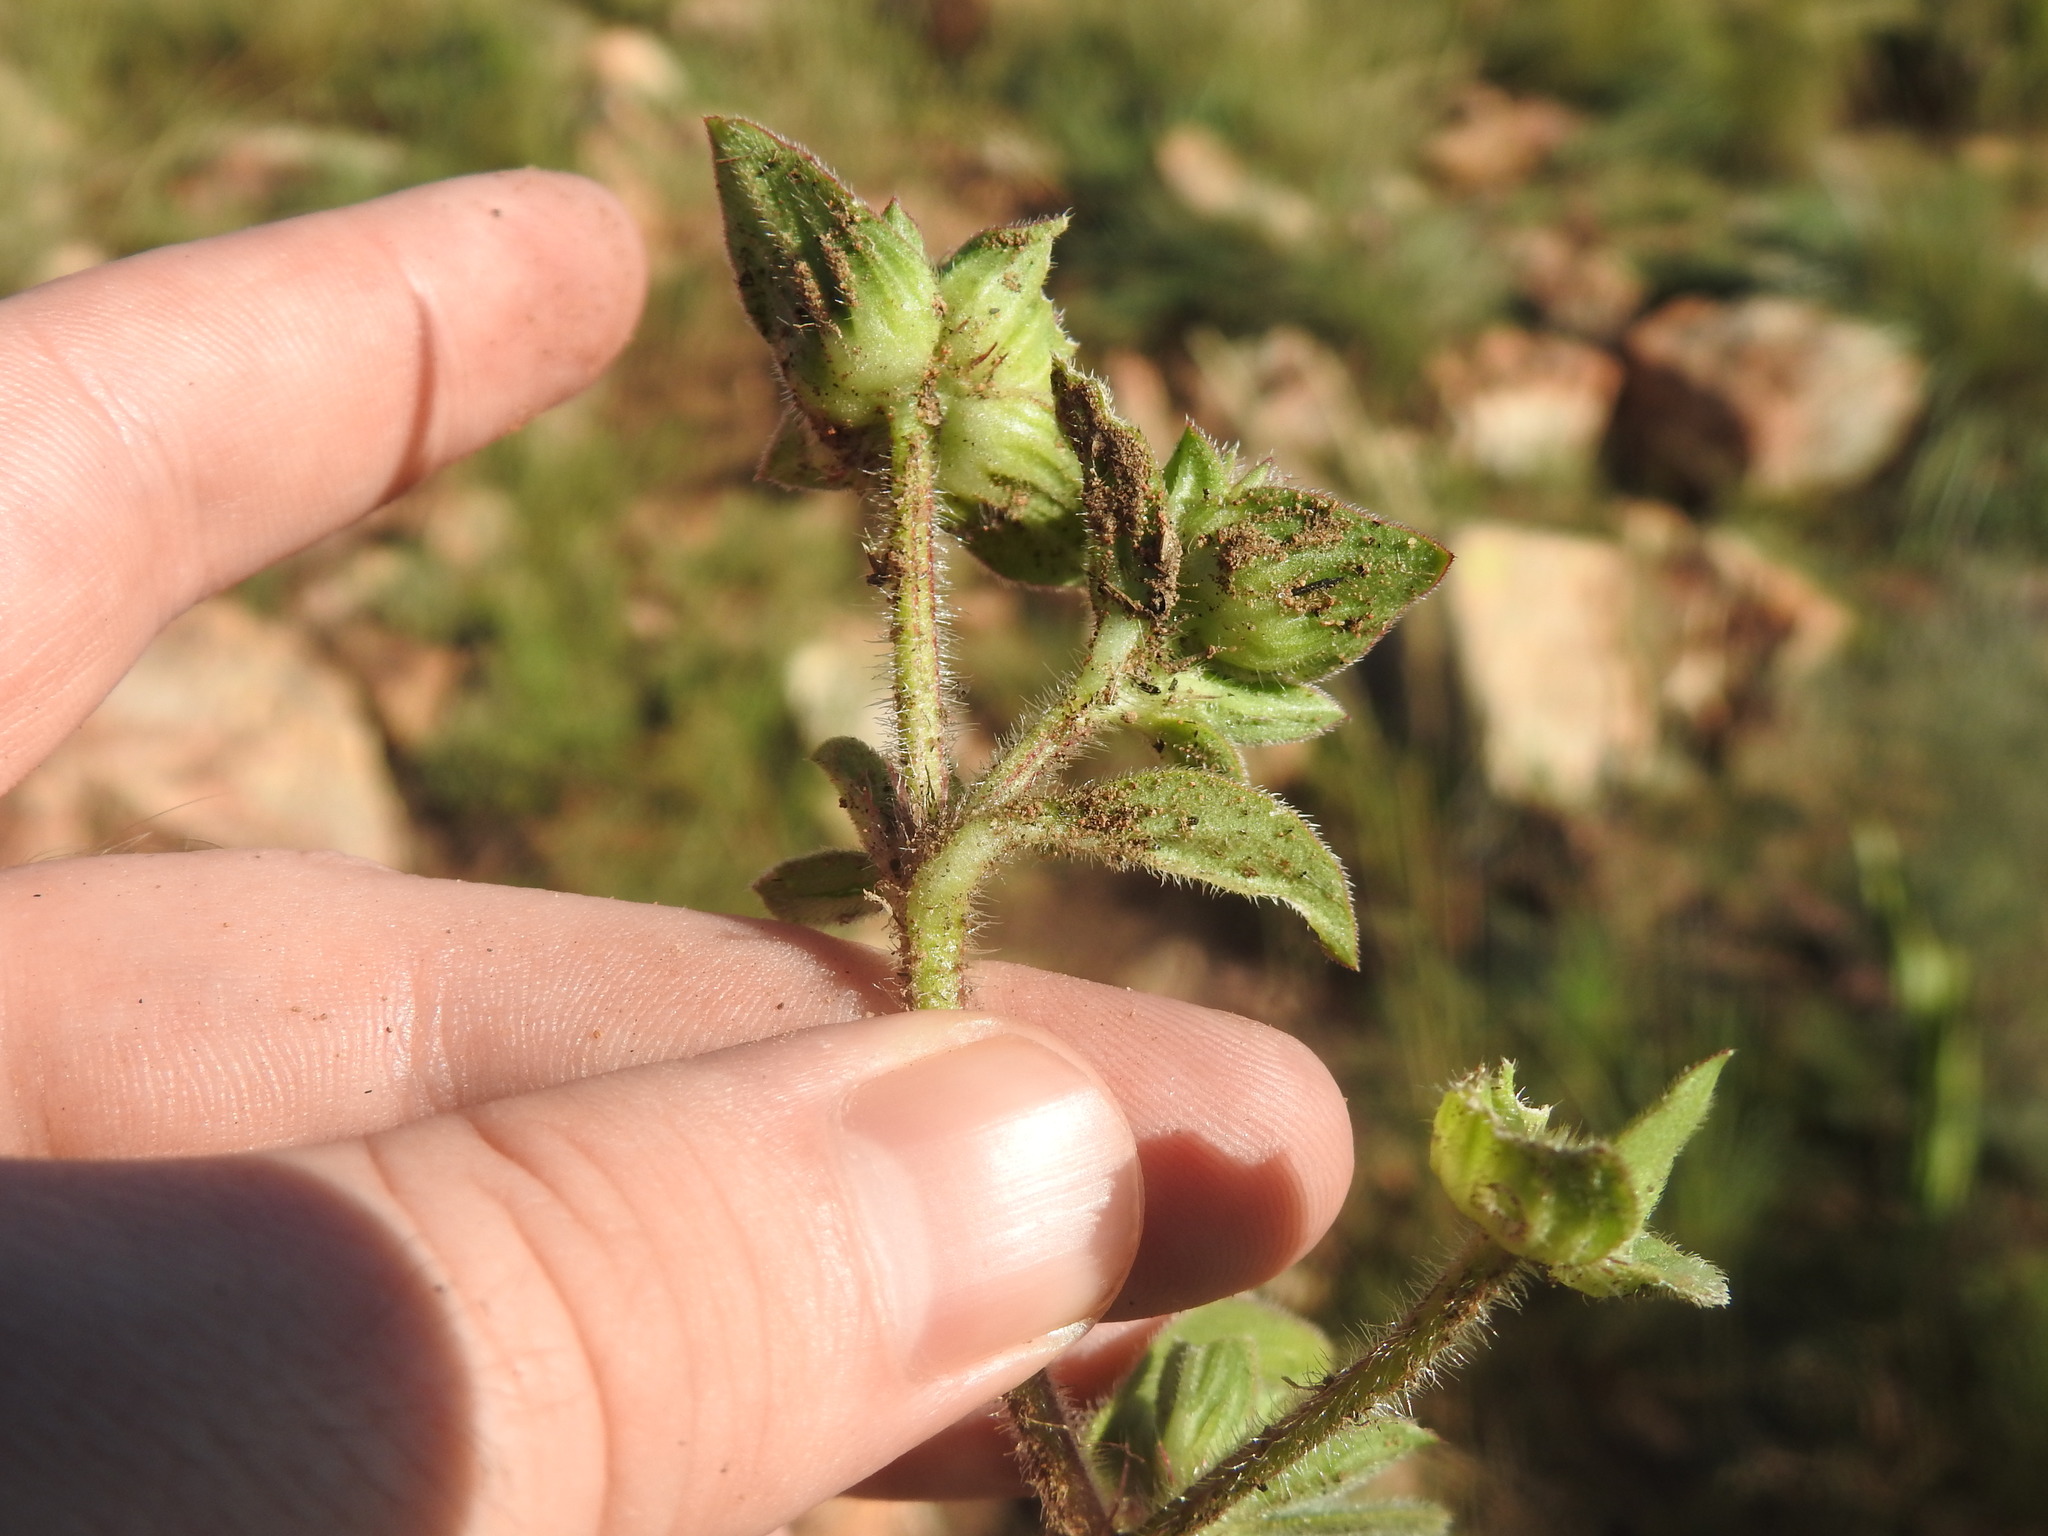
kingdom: Plantae
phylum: Tracheophyta
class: Magnoliopsida
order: Gentianales
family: Rubiaceae
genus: Richardia
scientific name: Richardia brasiliensis
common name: Tropical mexican clover
